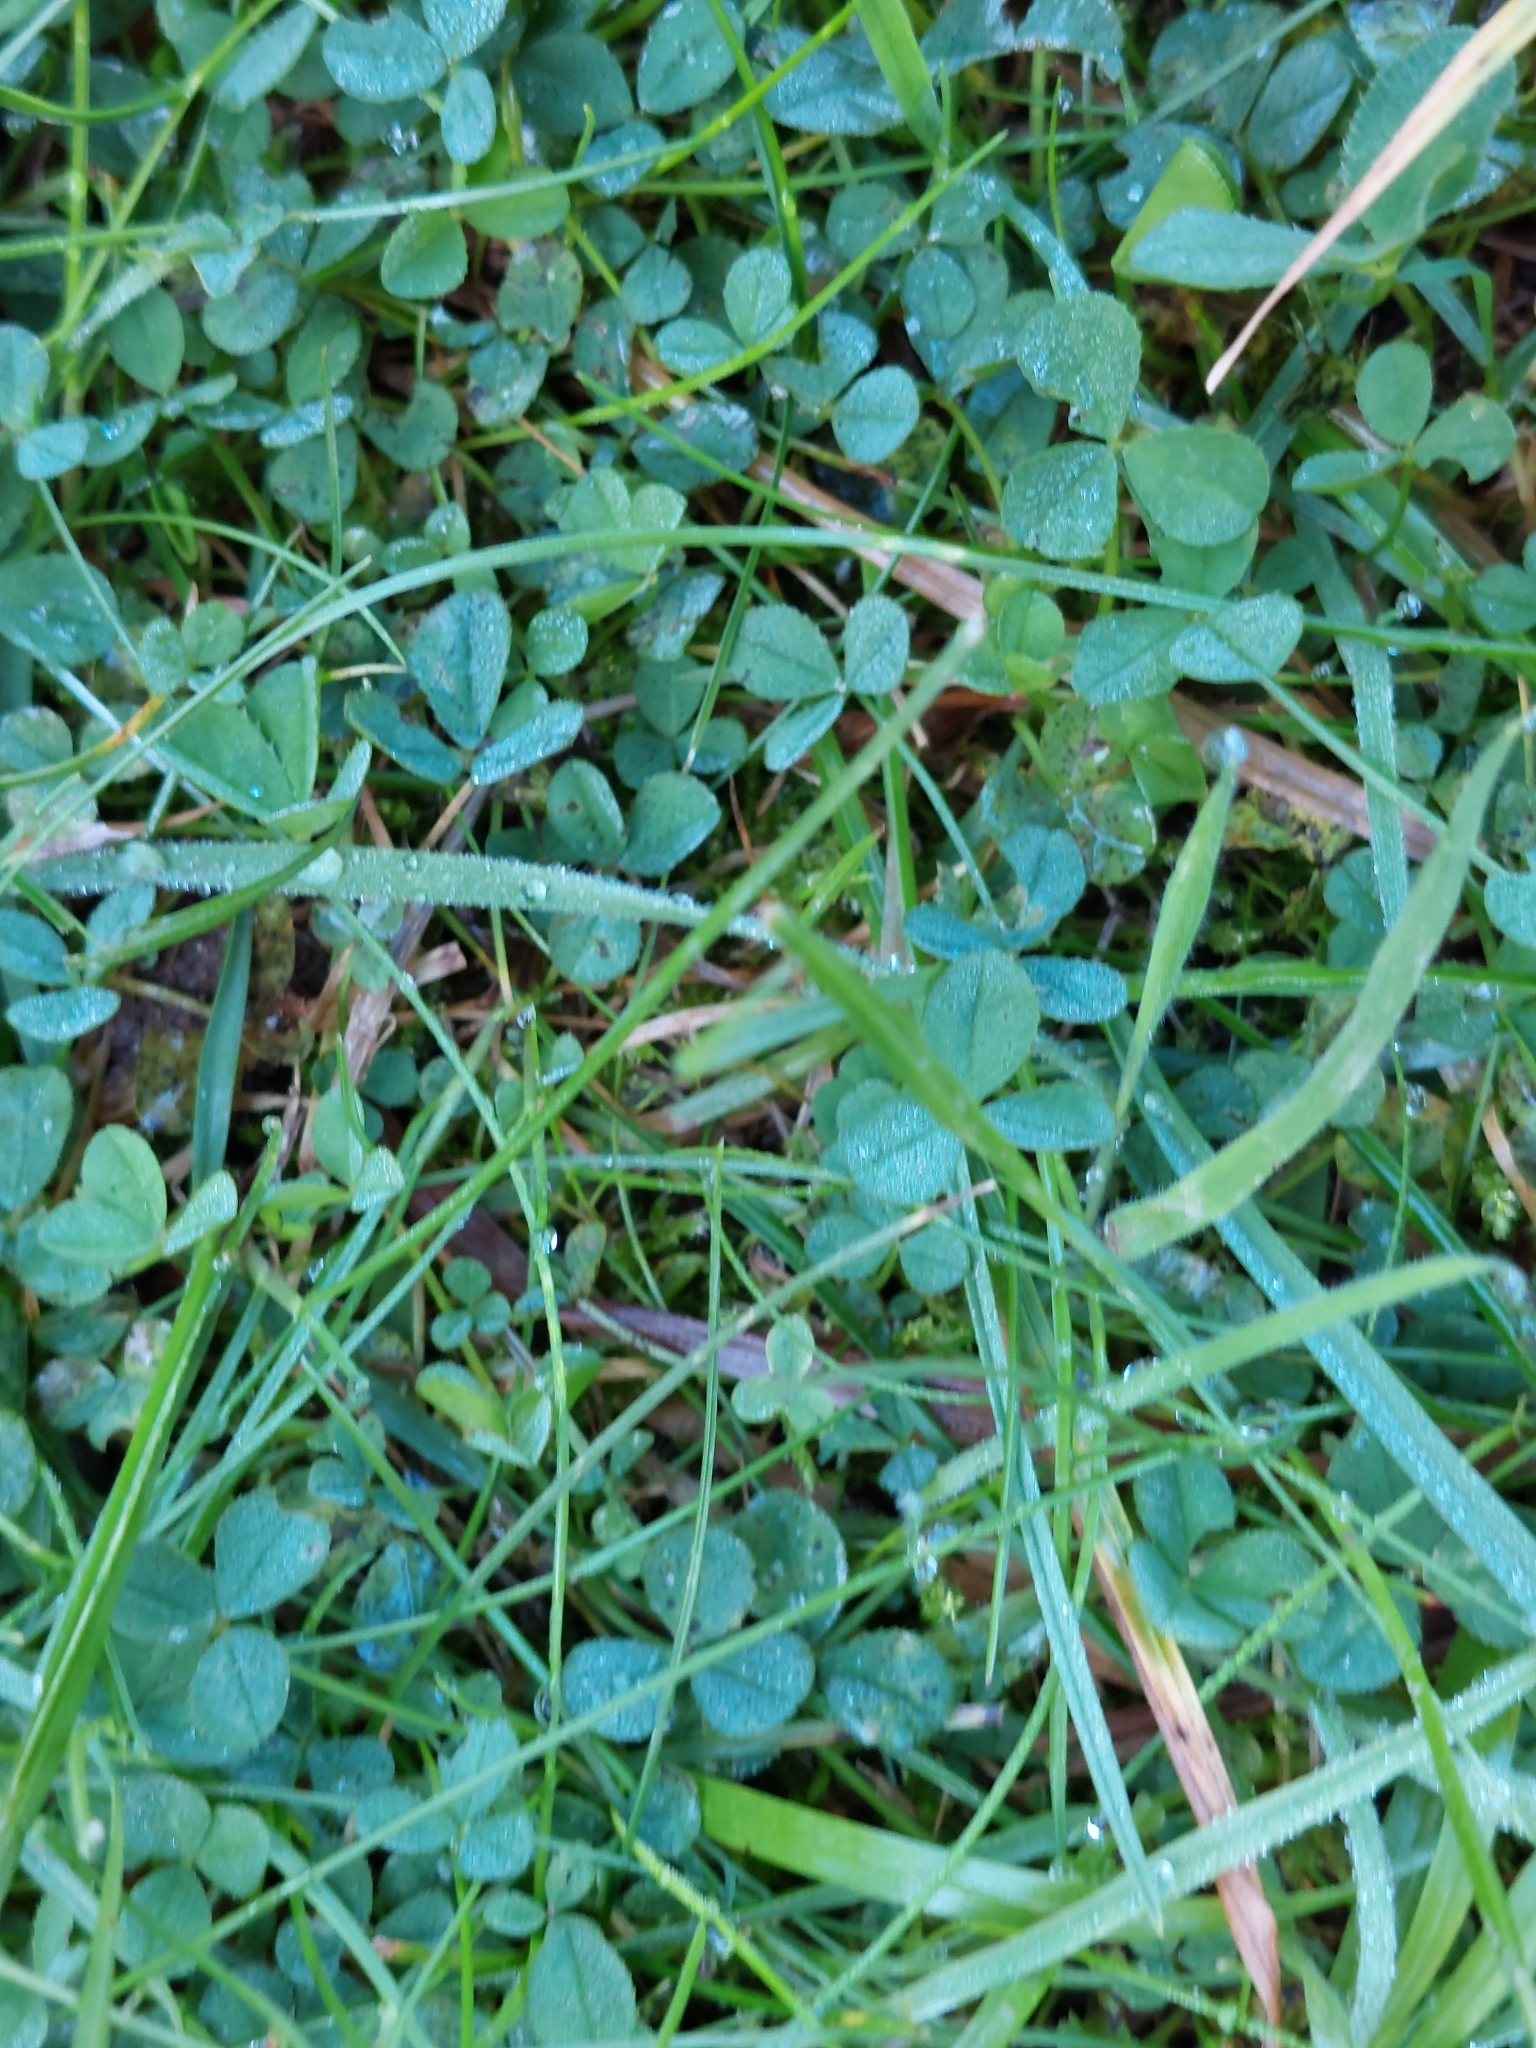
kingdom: Plantae
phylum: Tracheophyta
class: Magnoliopsida
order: Fabales
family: Fabaceae
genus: Trifolium
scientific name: Trifolium repens
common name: White clover
